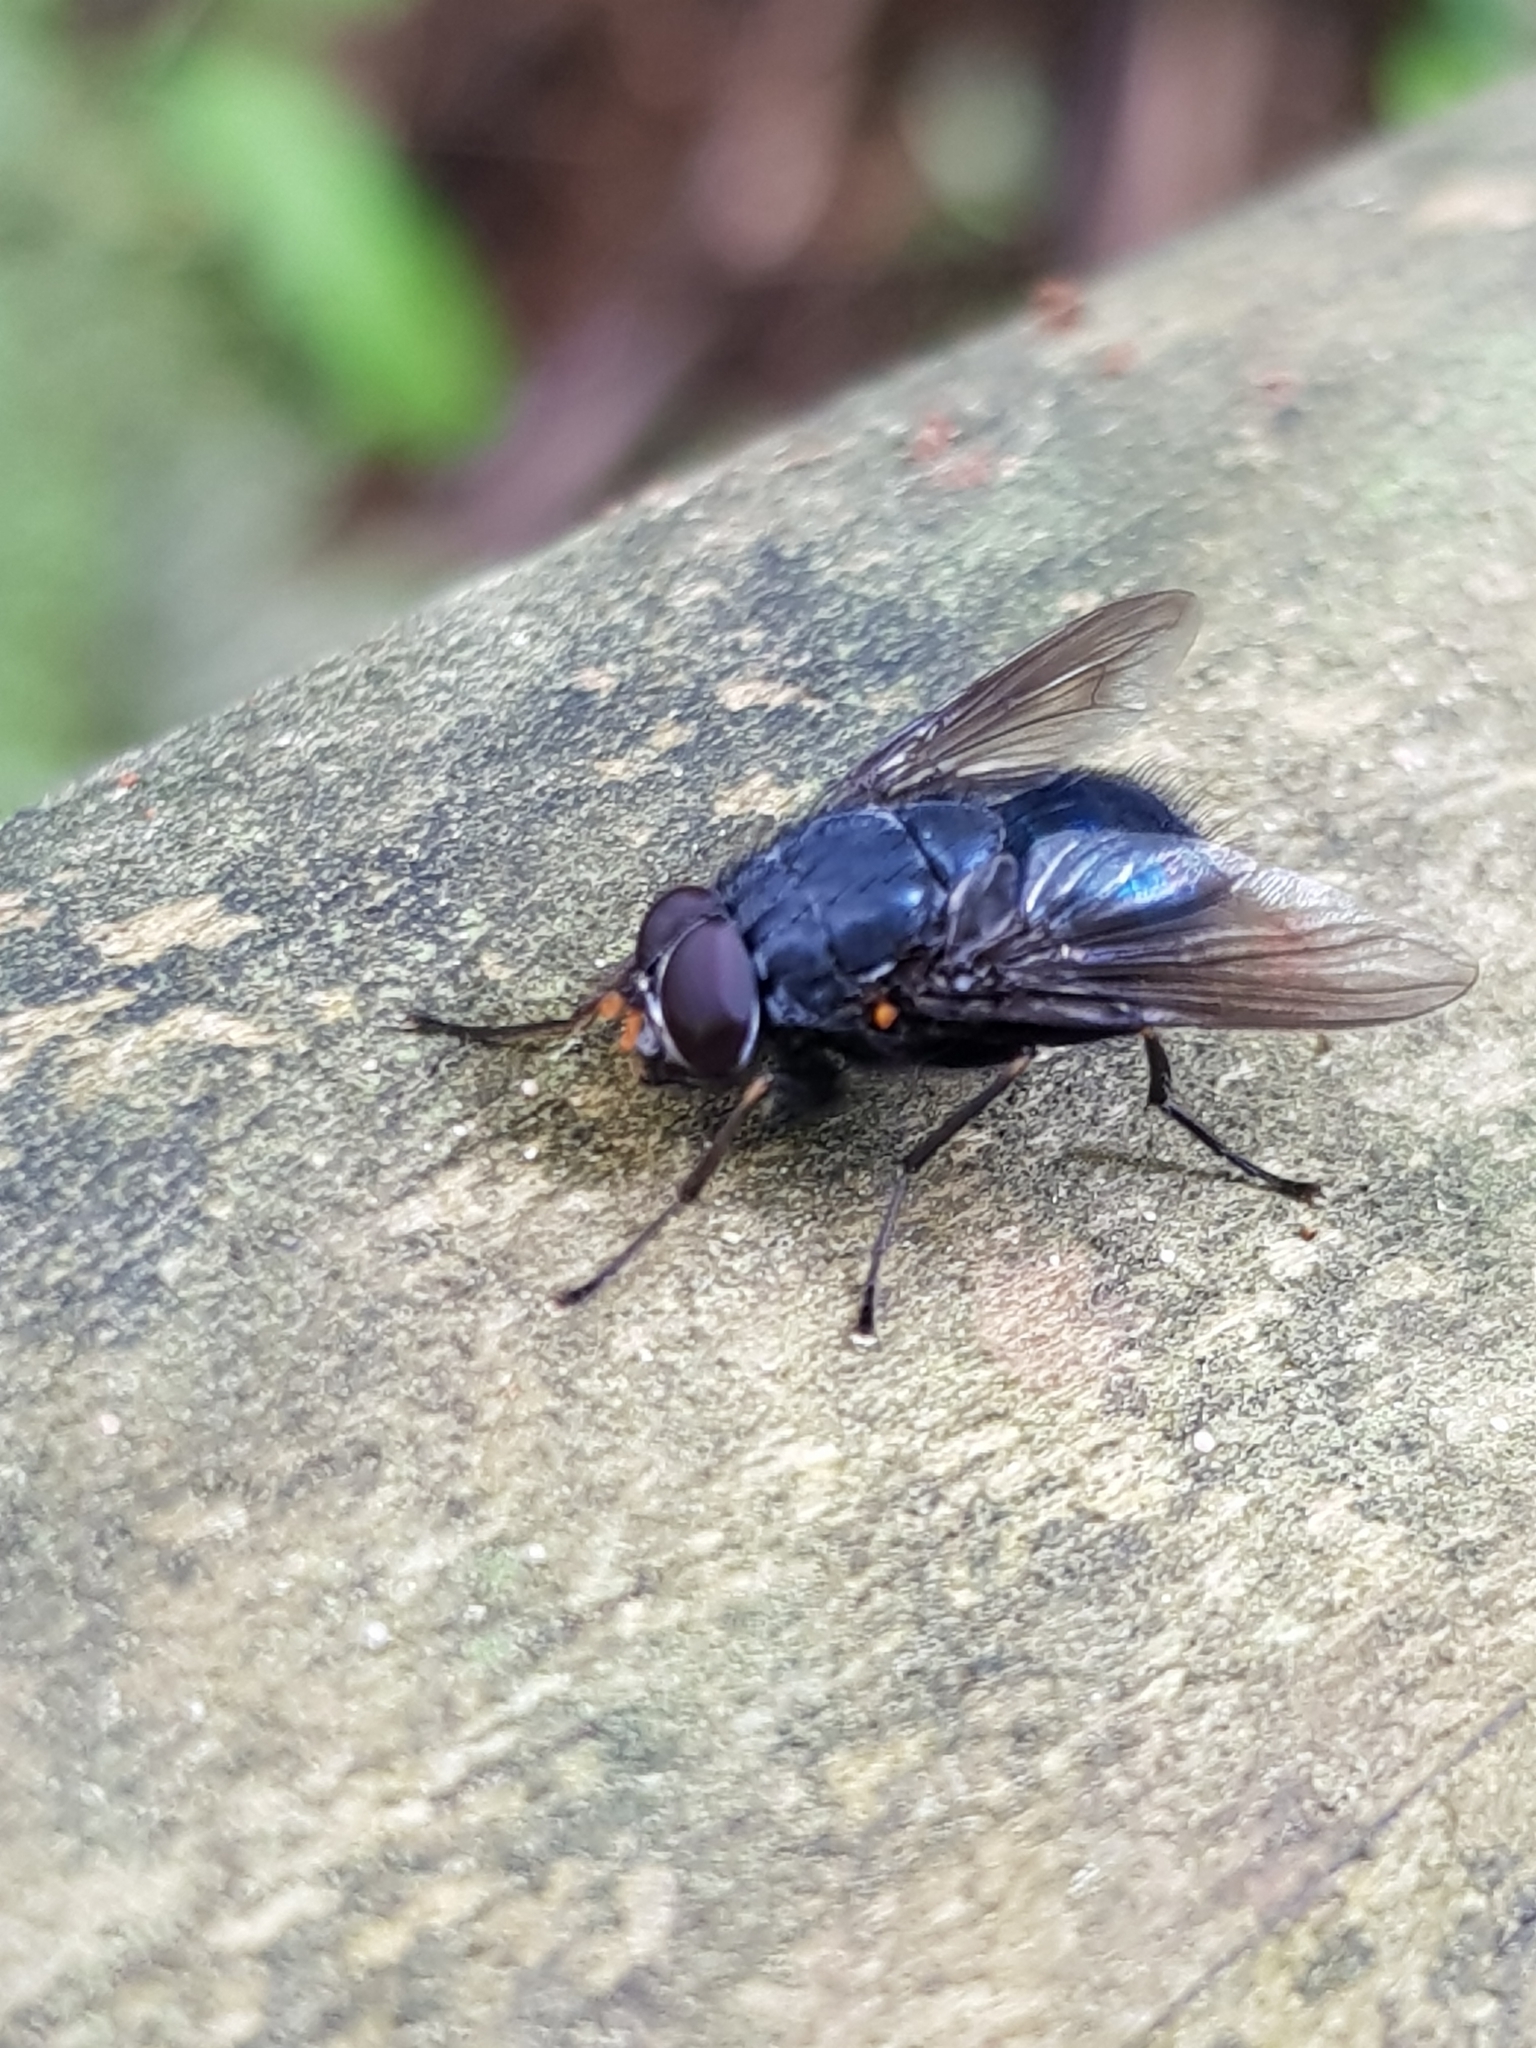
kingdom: Animalia
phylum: Arthropoda
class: Insecta
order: Diptera
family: Muscidae
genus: Calliphoroides
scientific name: Calliphoroides antennatis
